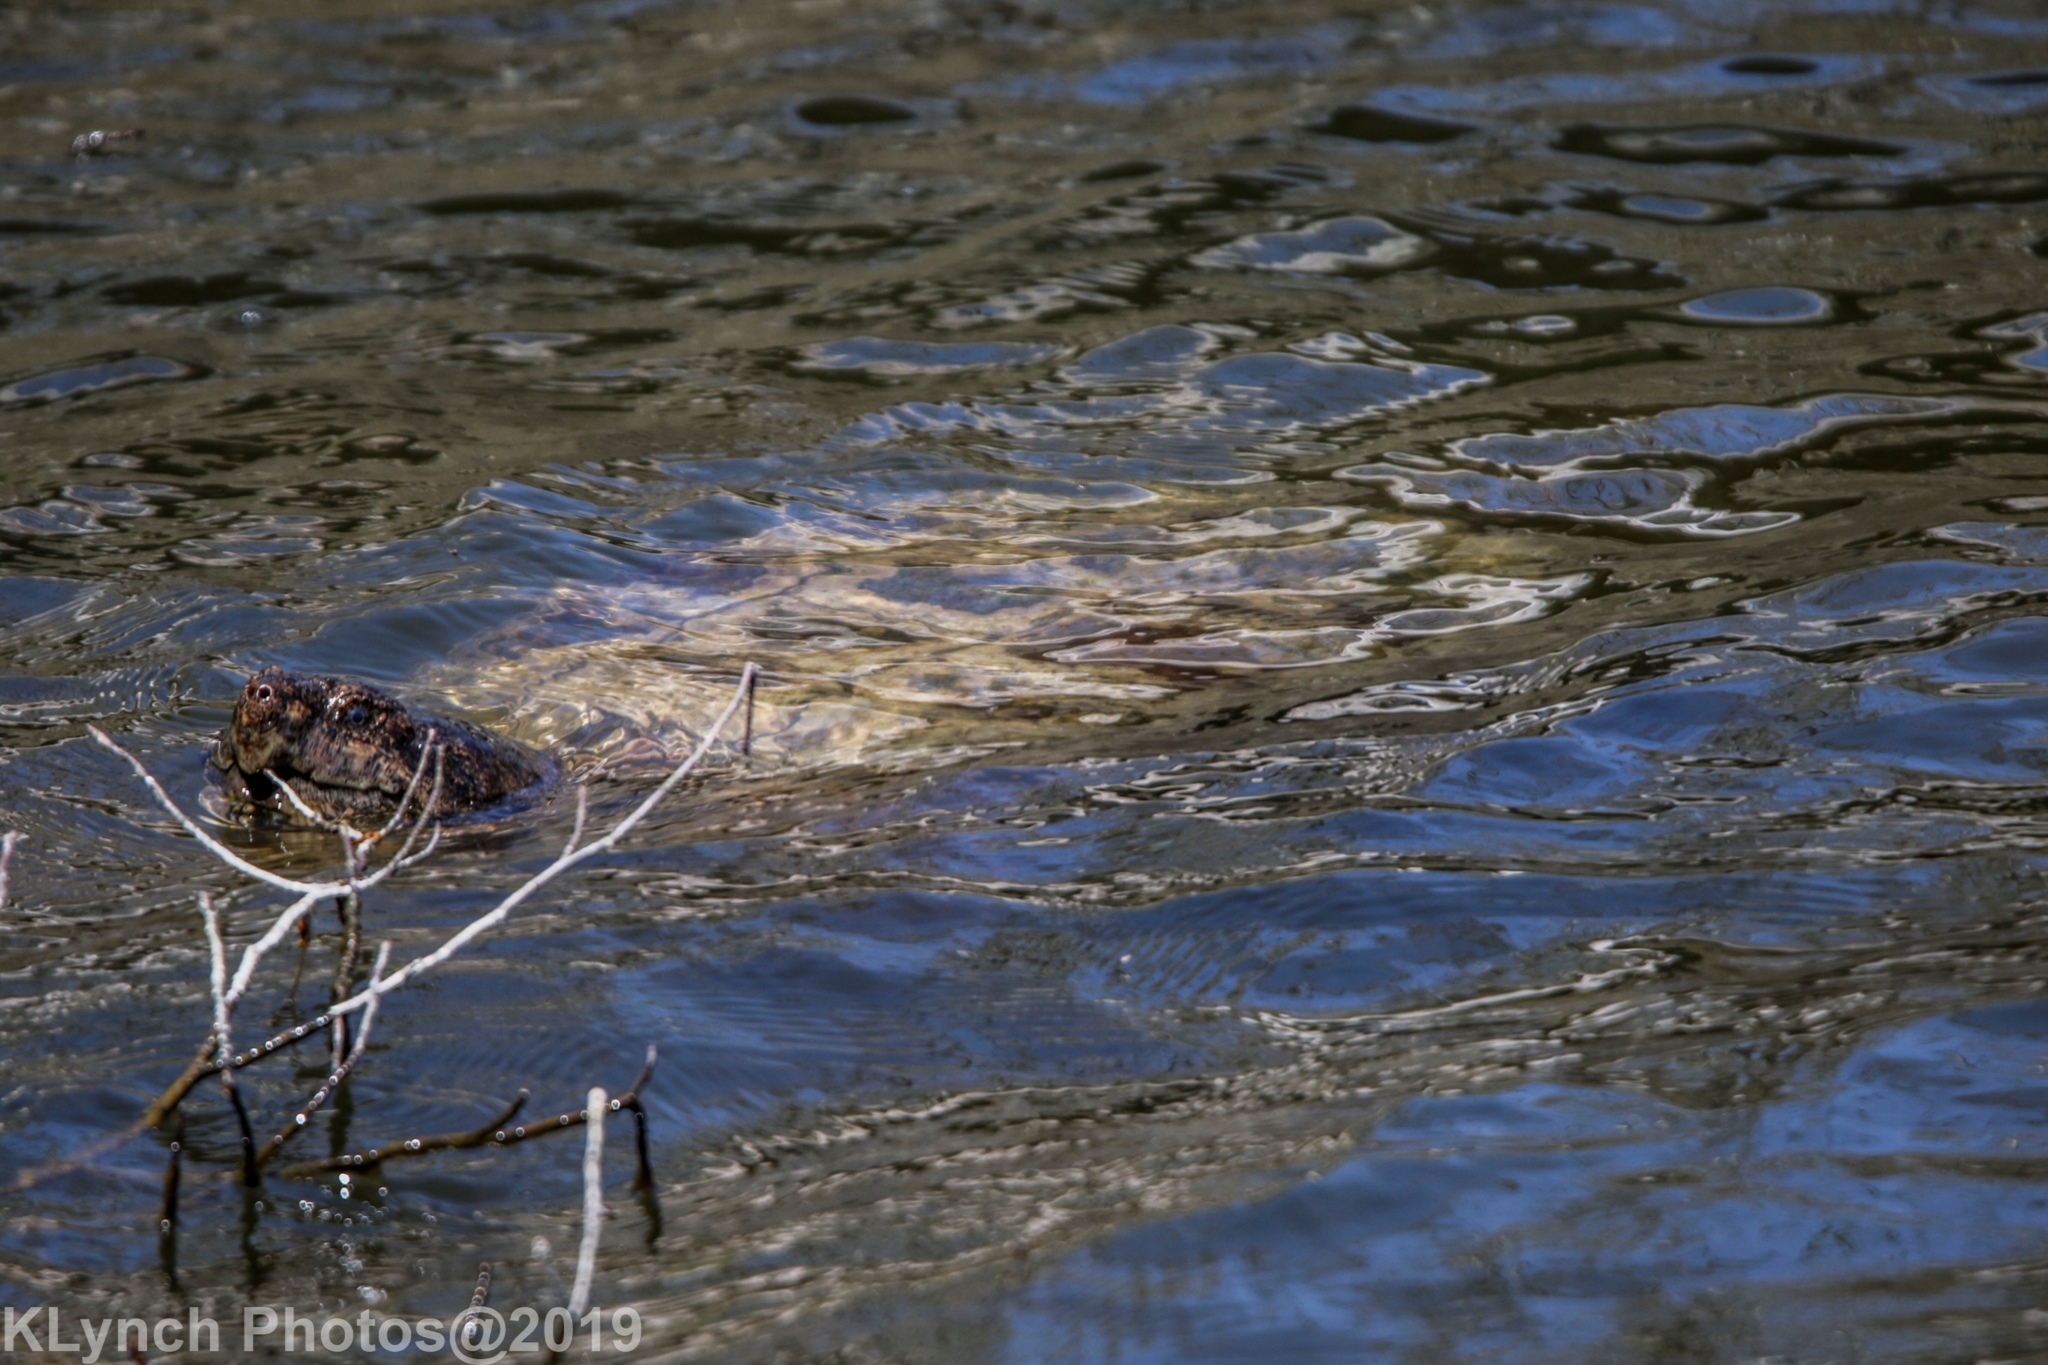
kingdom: Animalia
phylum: Chordata
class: Testudines
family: Chelydridae
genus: Chelydra
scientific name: Chelydra serpentina
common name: Common snapping turtle
